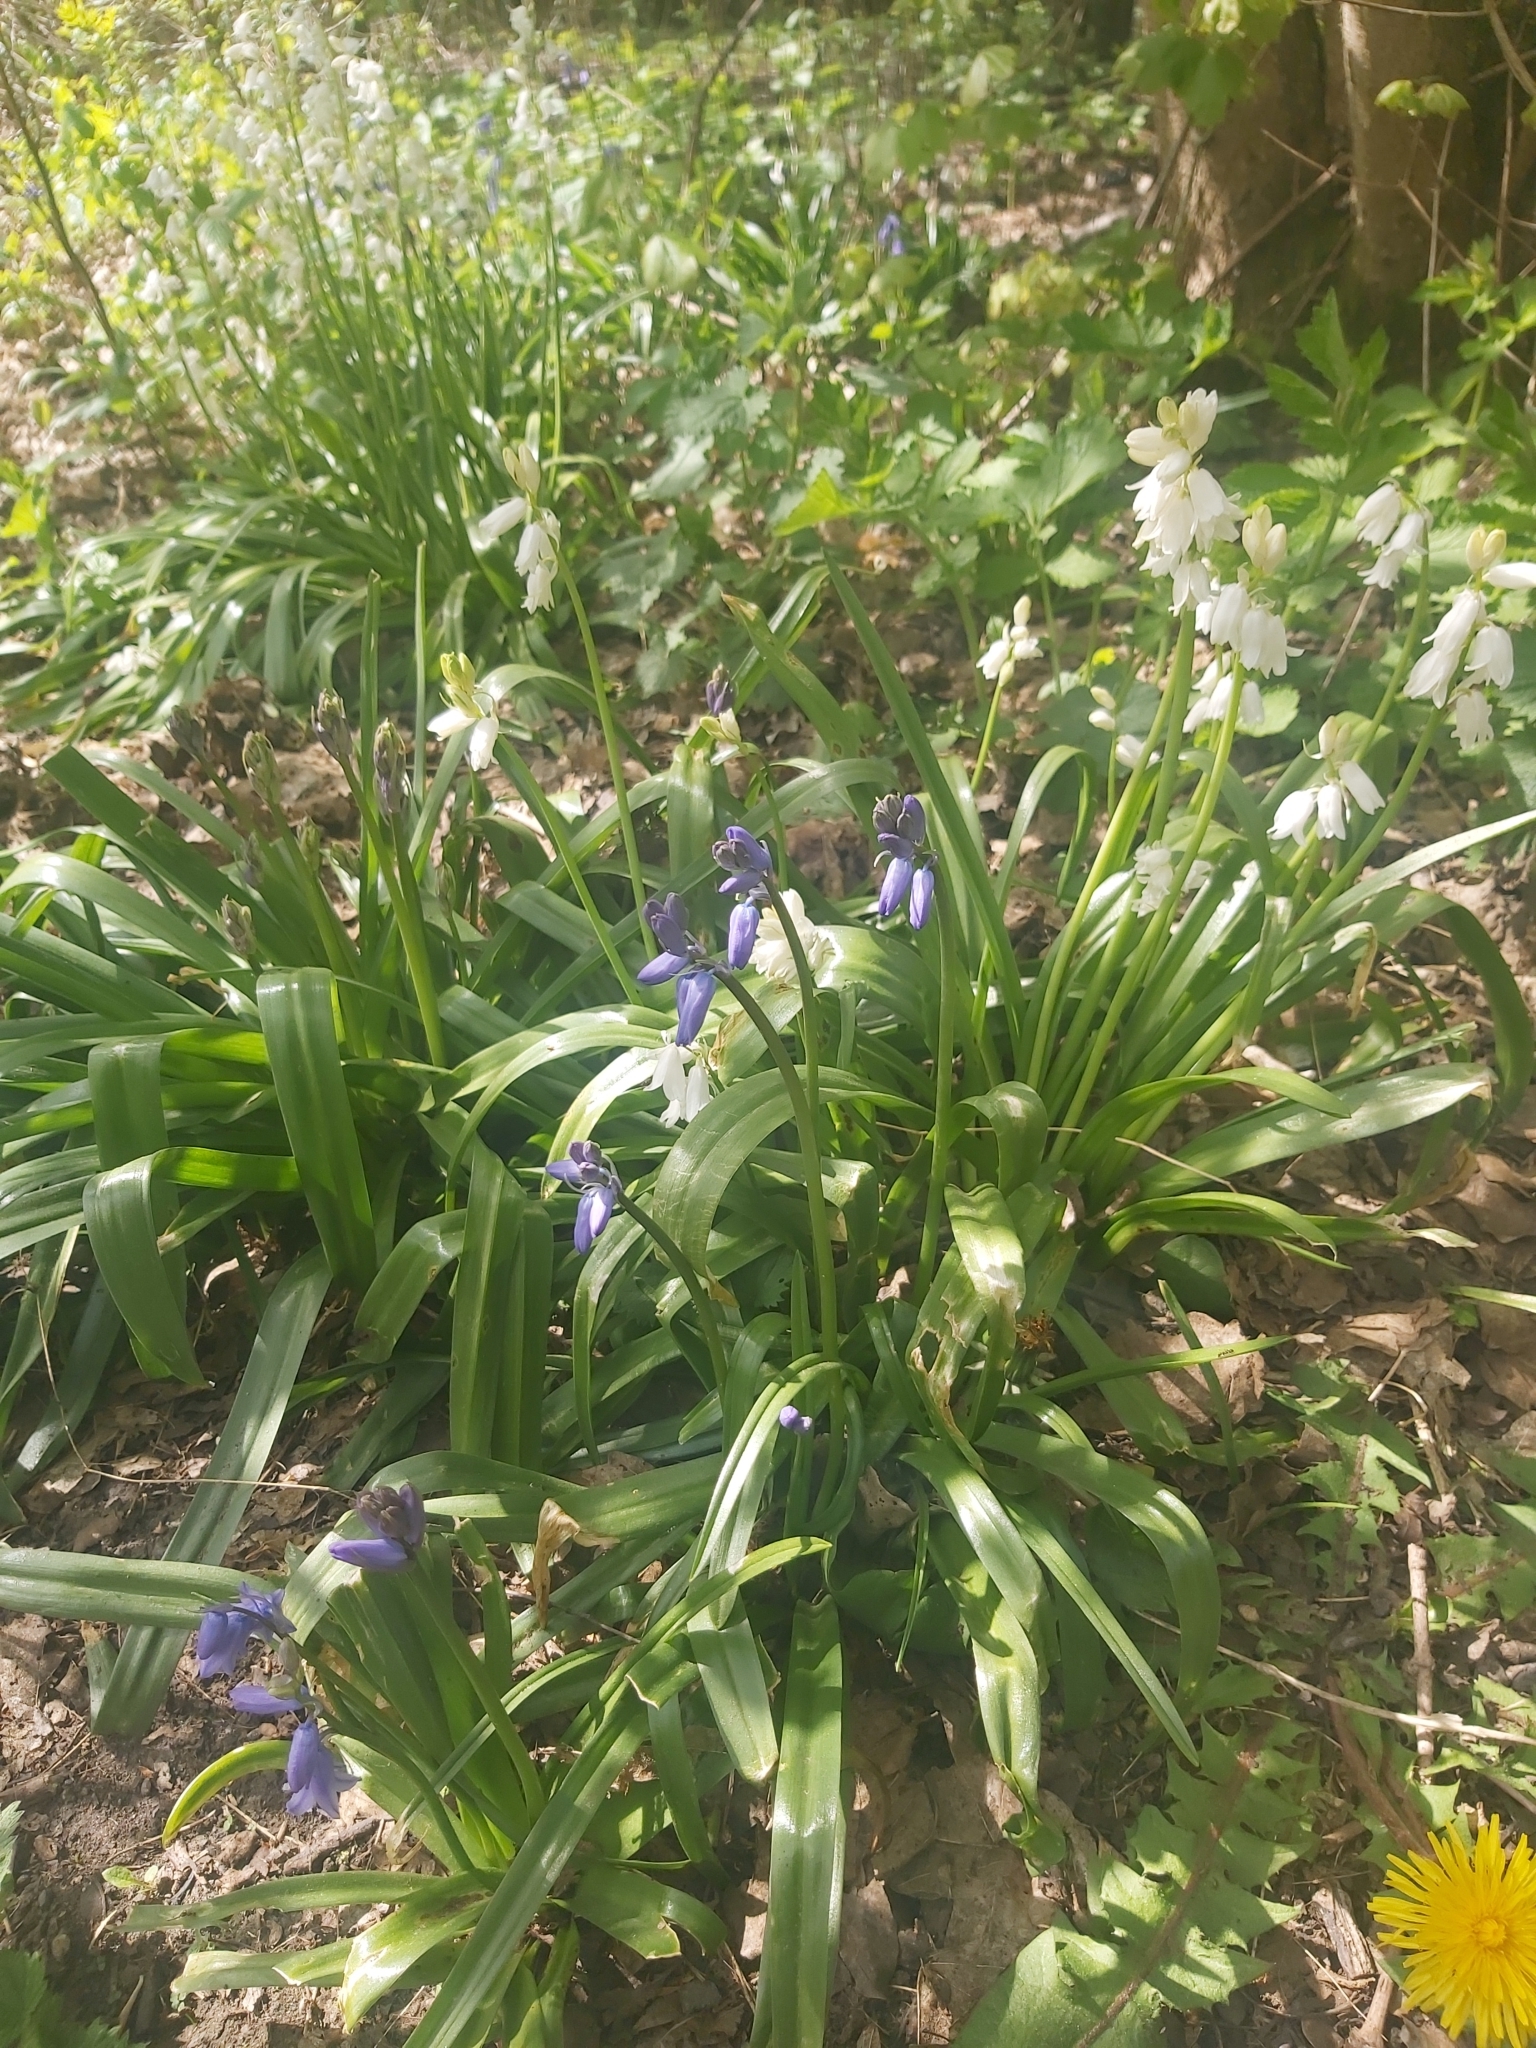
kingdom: Plantae
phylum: Tracheophyta
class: Liliopsida
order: Asparagales
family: Asparagaceae
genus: Hyacinthoides
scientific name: Hyacinthoides non-scripta
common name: Bluebell
